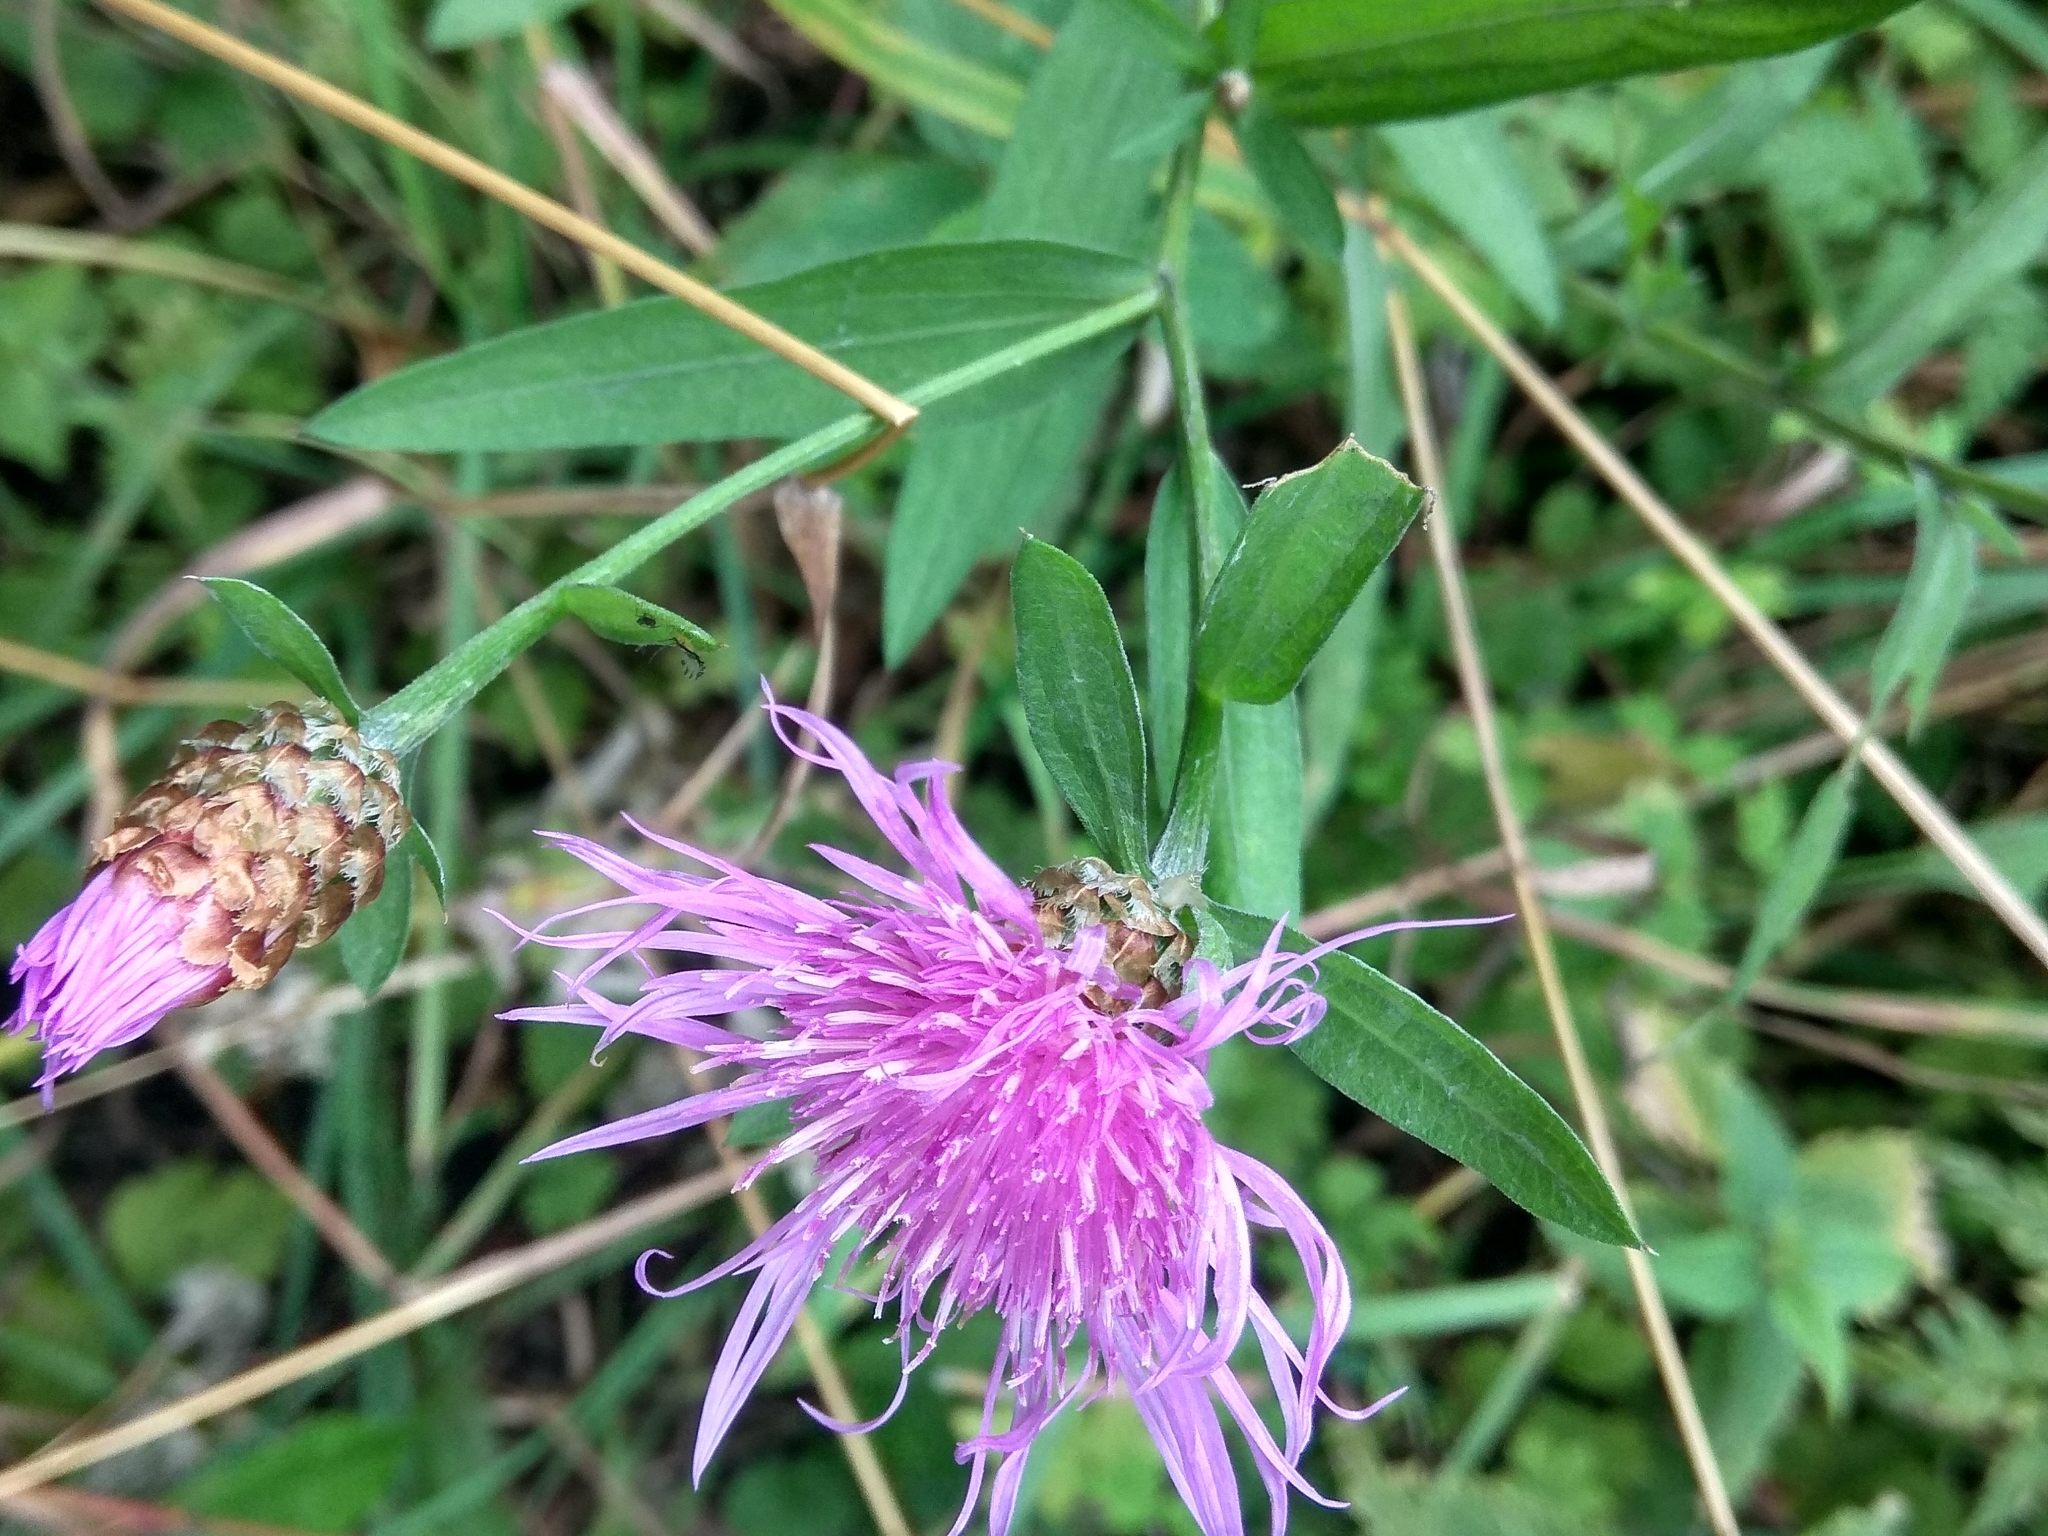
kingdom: Plantae
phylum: Tracheophyta
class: Magnoliopsida
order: Asterales
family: Asteraceae
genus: Centaurea
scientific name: Centaurea jacea
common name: Brown knapweed
